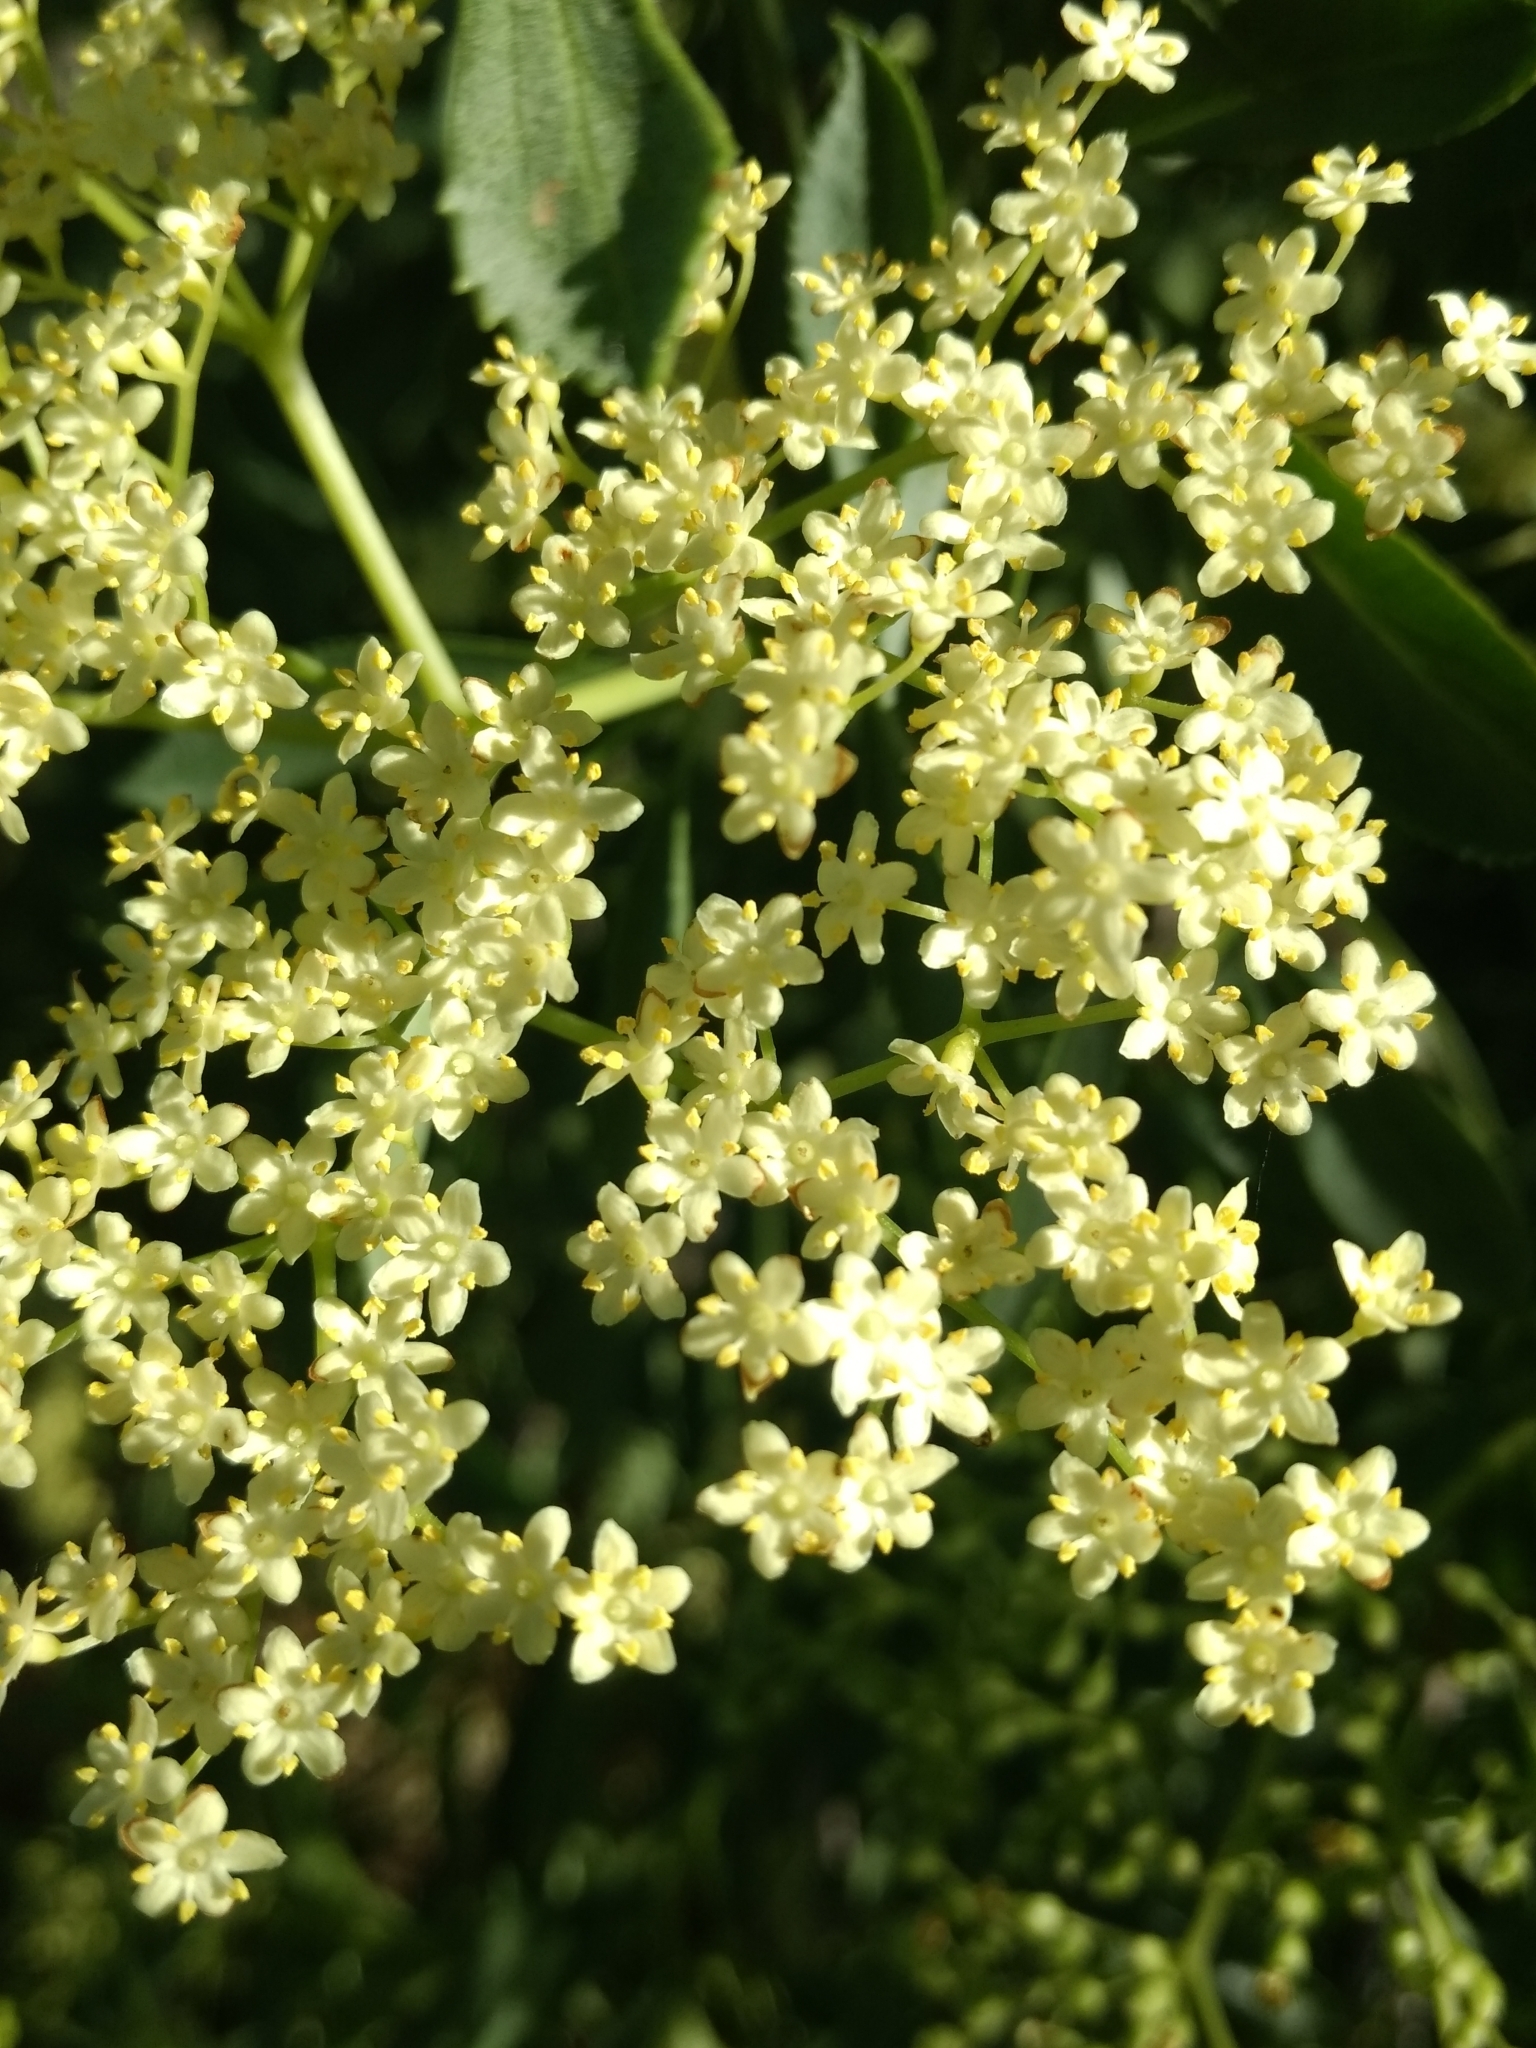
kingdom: Plantae
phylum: Tracheophyta
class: Magnoliopsida
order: Dipsacales
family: Viburnaceae
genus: Sambucus
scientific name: Sambucus cerulea
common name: Blue elder
